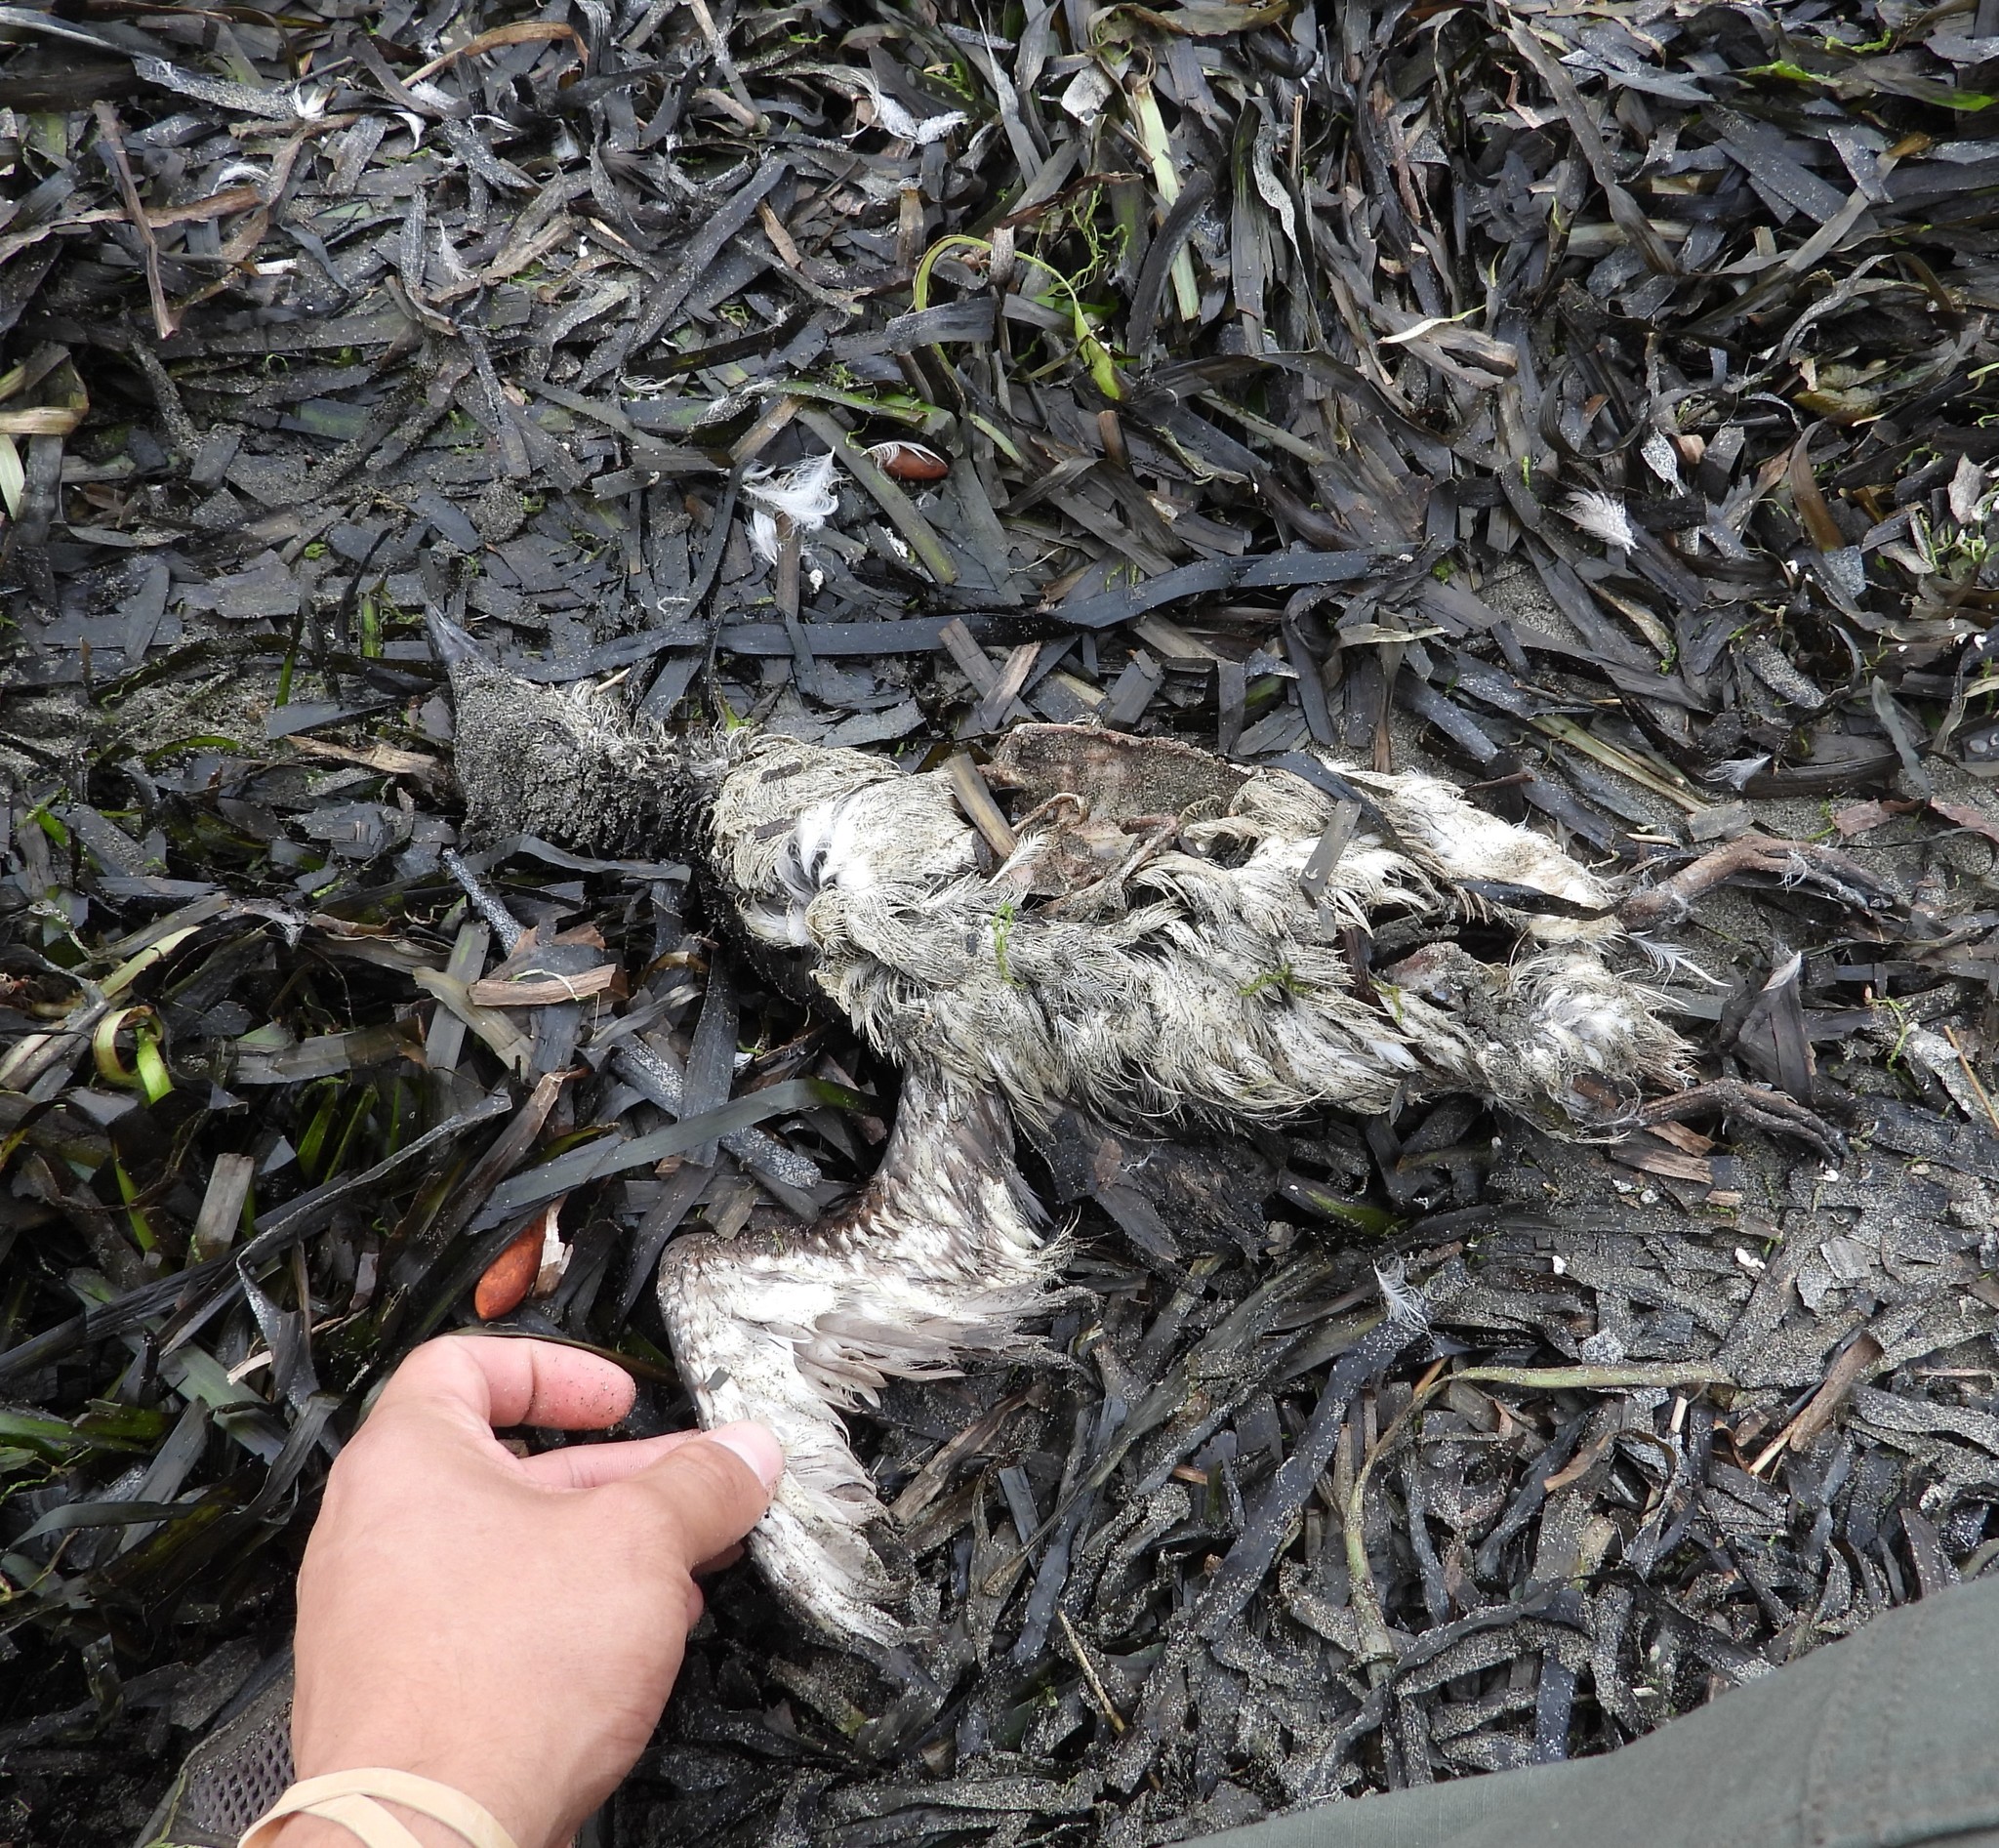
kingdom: Animalia
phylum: Chordata
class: Aves
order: Charadriiformes
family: Alcidae
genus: Uria
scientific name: Uria aalge
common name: Common murre
